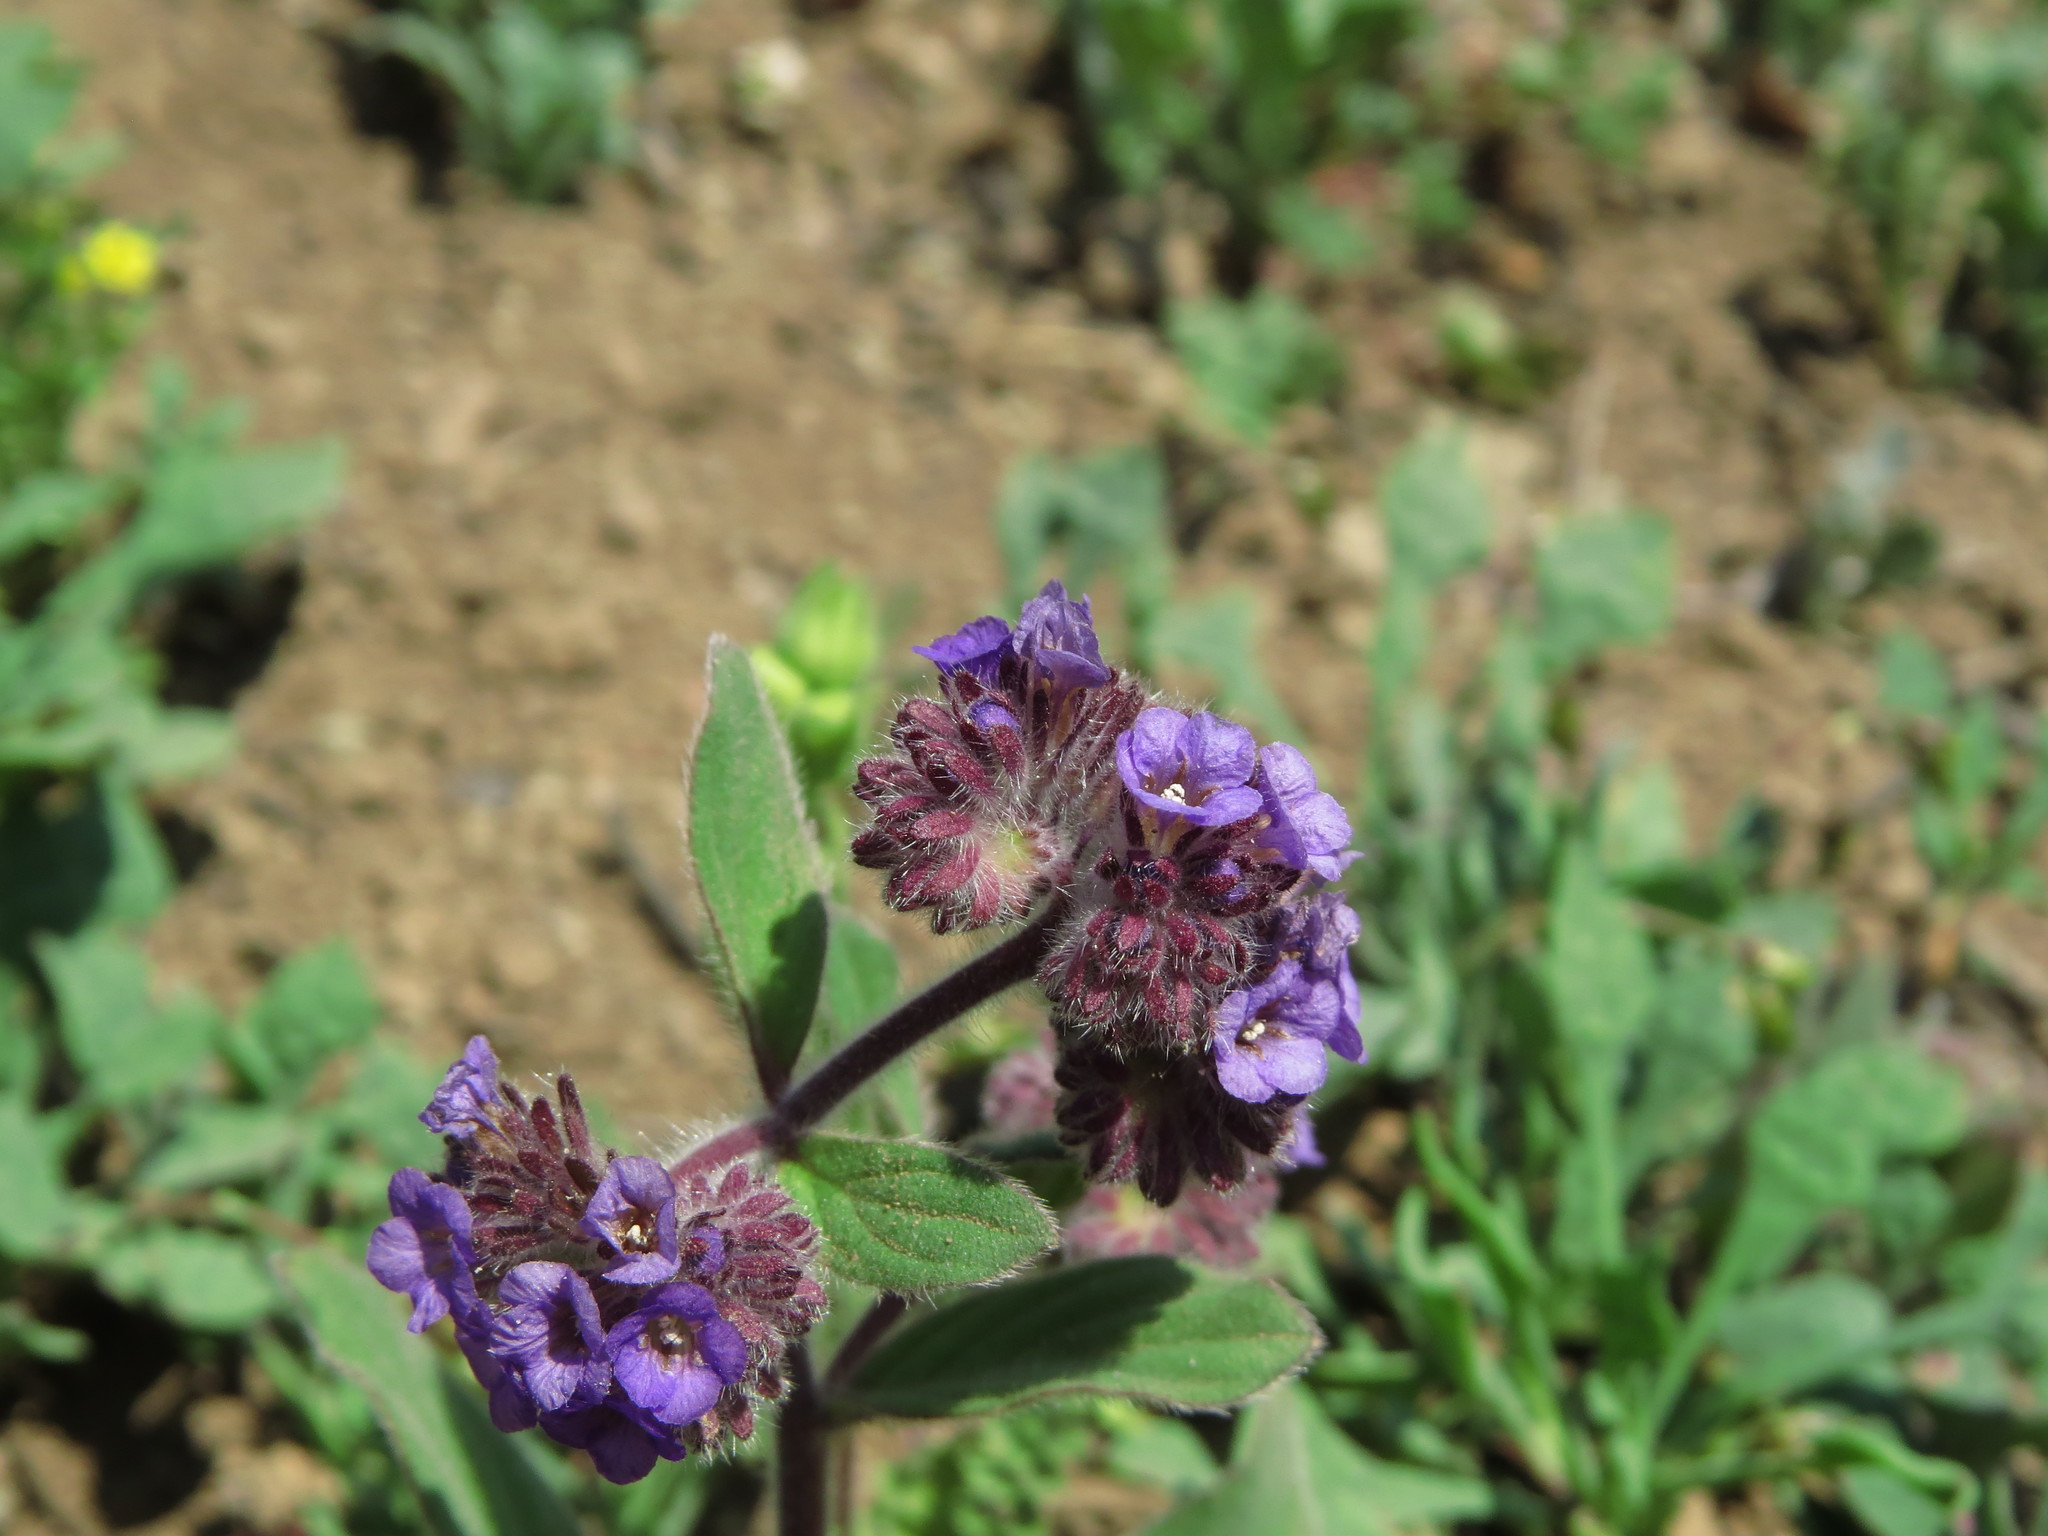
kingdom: Plantae
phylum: Tracheophyta
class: Magnoliopsida
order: Boraginales
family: Hydrophyllaceae
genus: Phacelia
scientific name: Phacelia brachyantha
